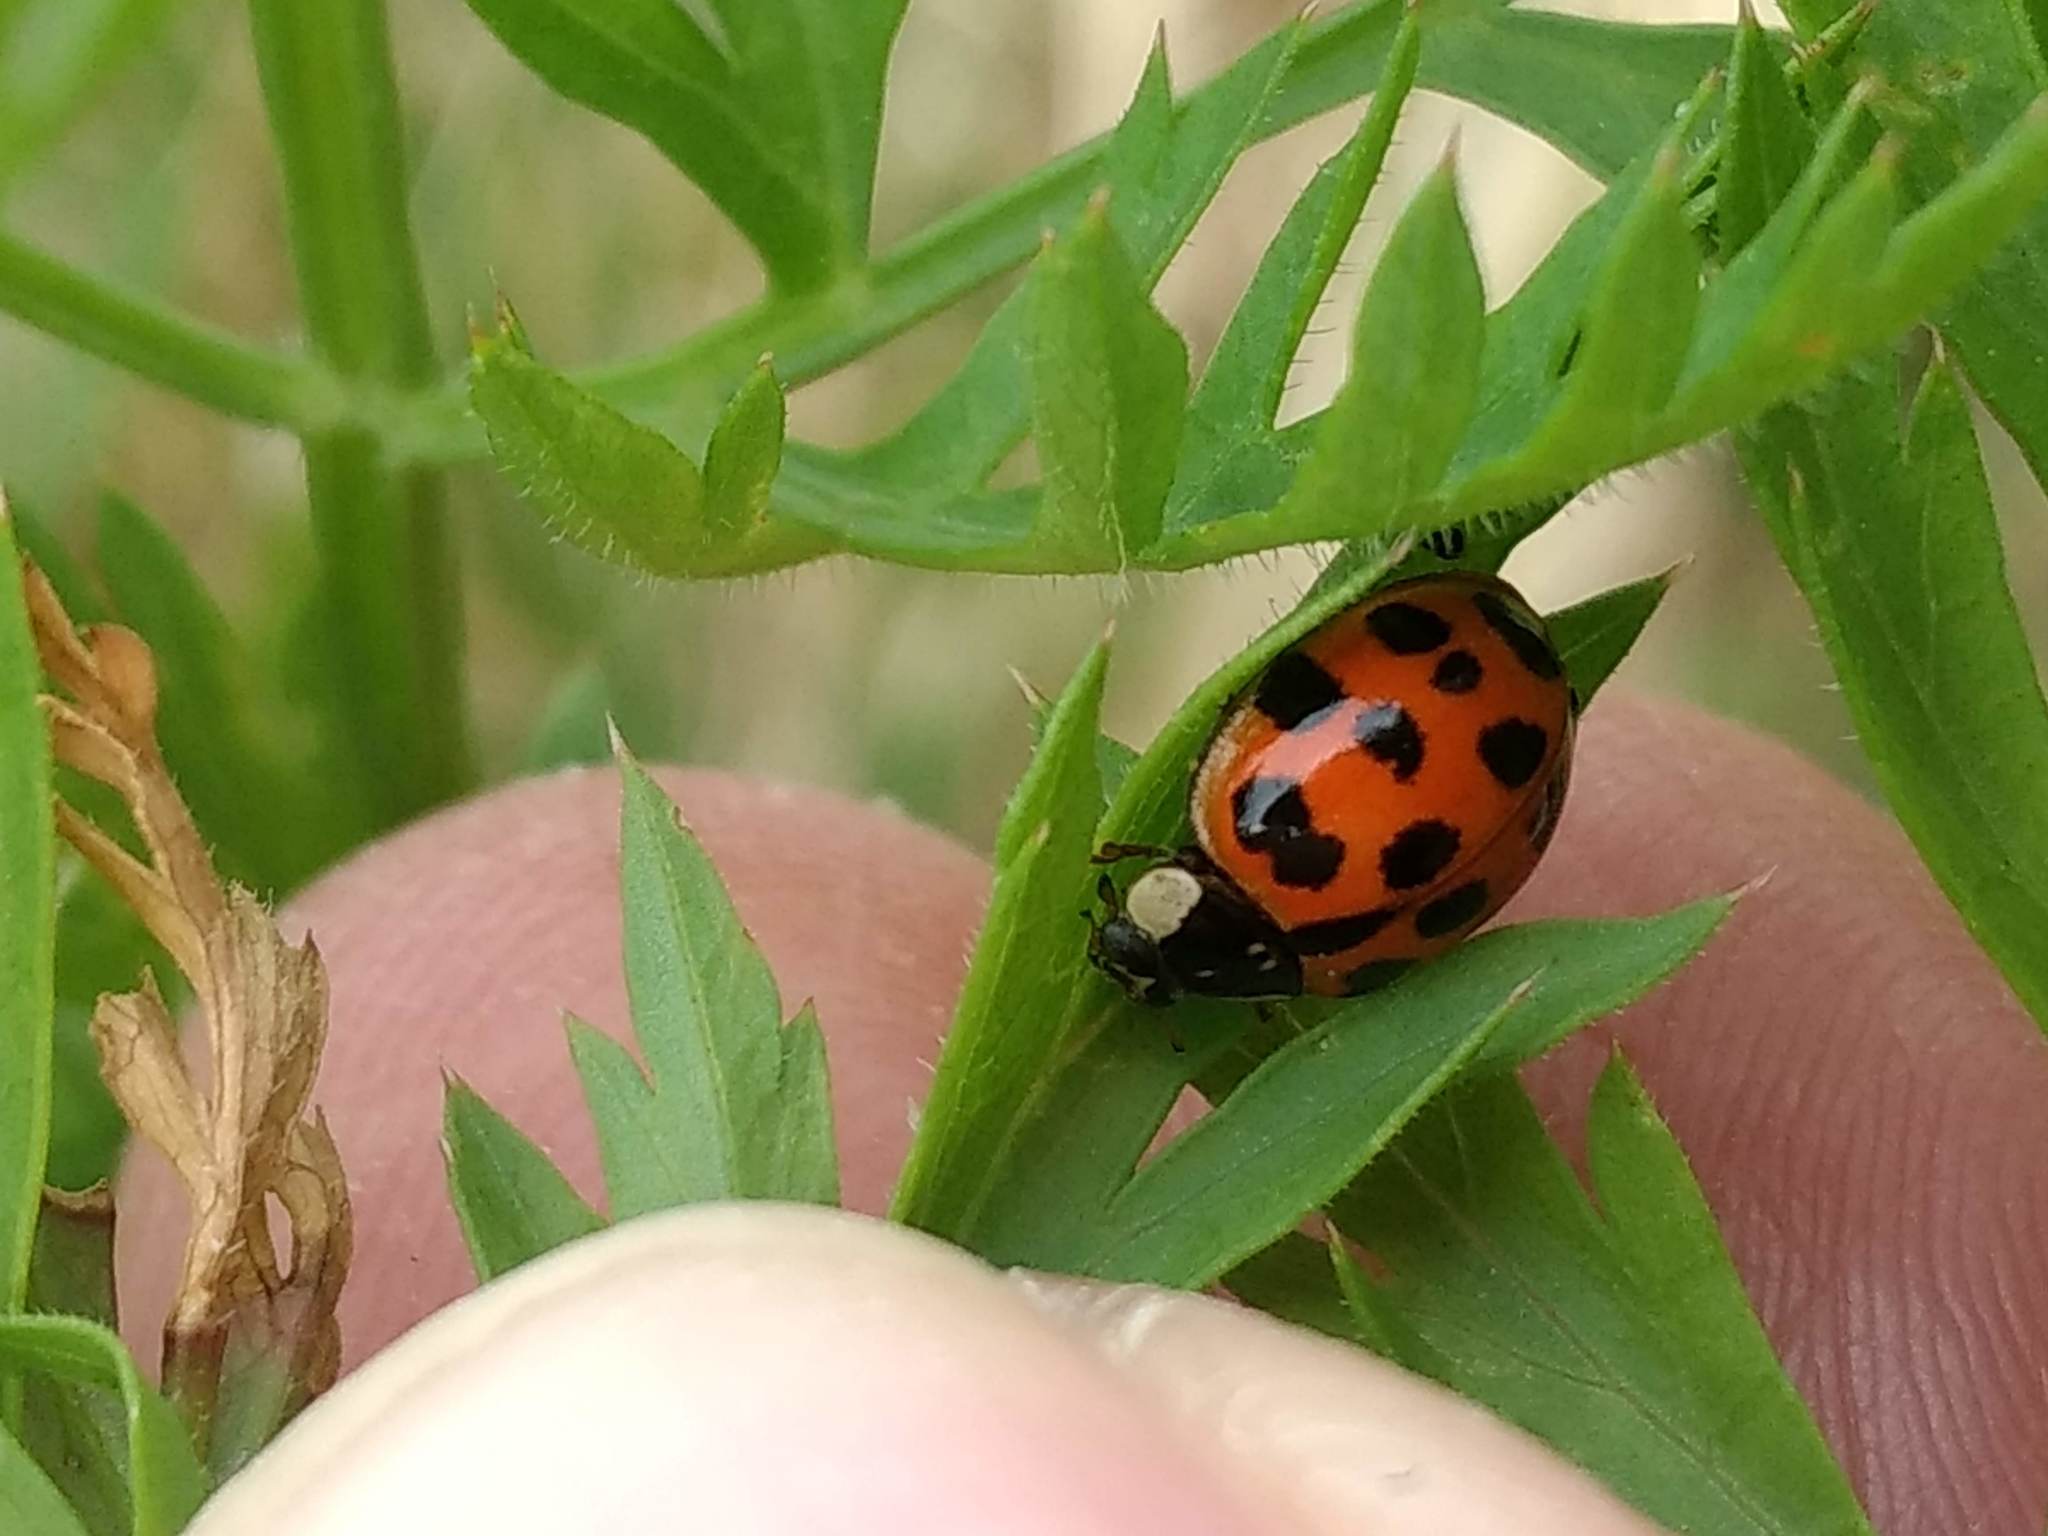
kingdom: Animalia
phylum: Arthropoda
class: Insecta
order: Coleoptera
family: Coccinellidae
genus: Harmonia
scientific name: Harmonia axyridis
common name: Harlequin ladybird
